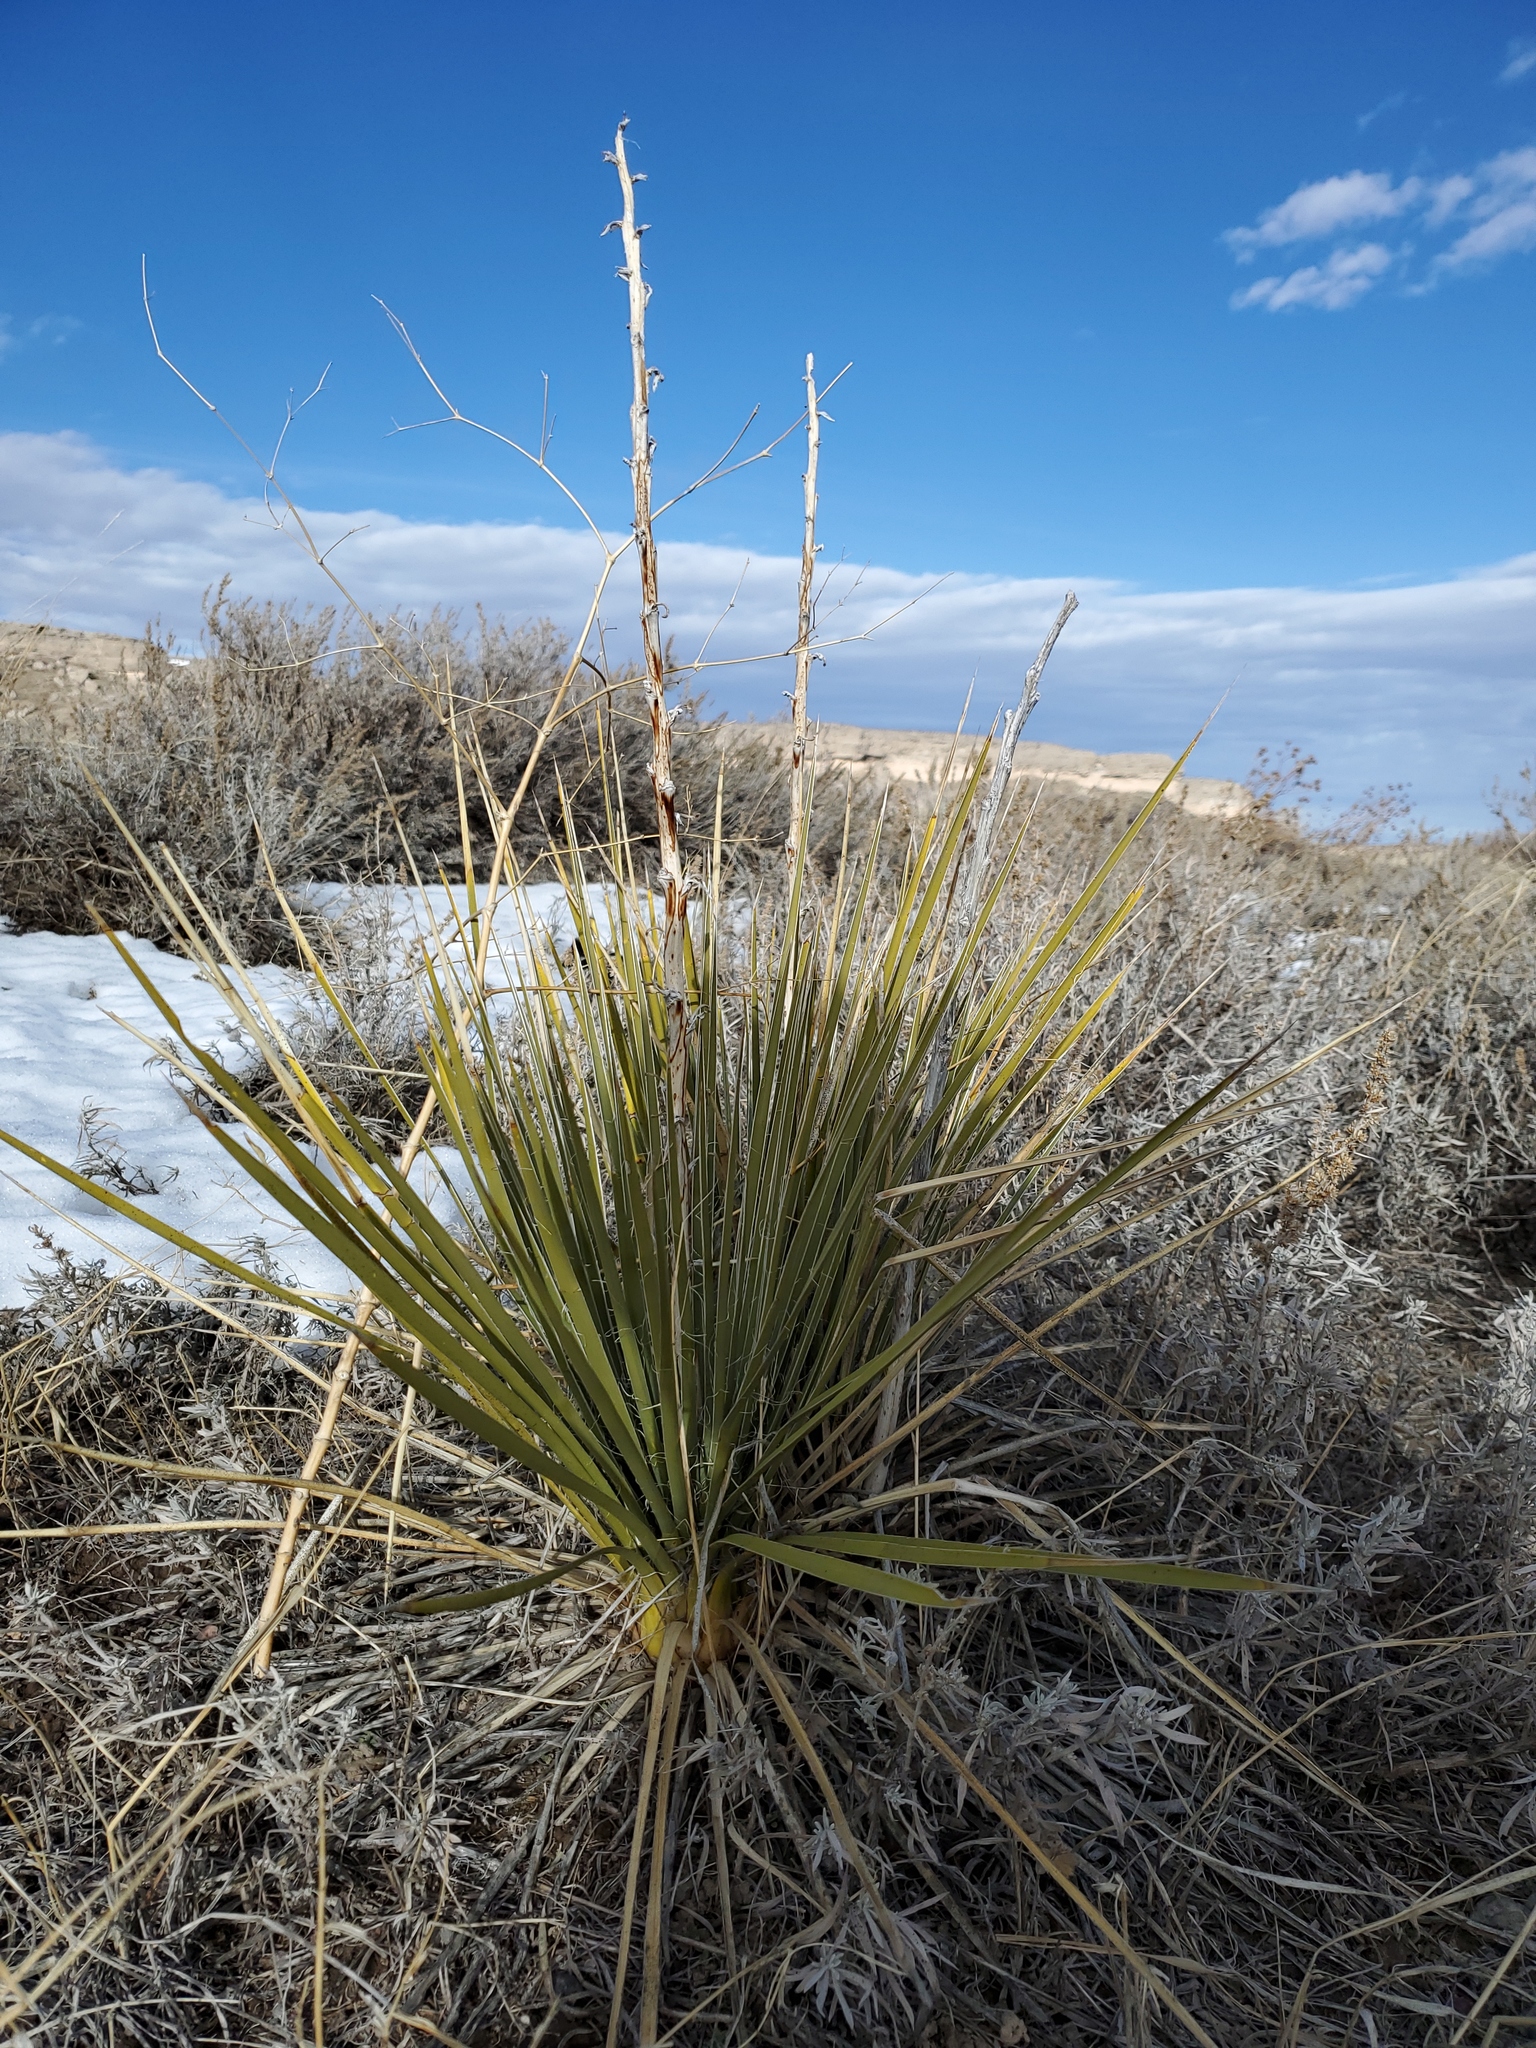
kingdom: Plantae
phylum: Tracheophyta
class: Liliopsida
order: Asparagales
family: Asparagaceae
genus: Yucca
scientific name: Yucca glauca
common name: Great plains yucca
